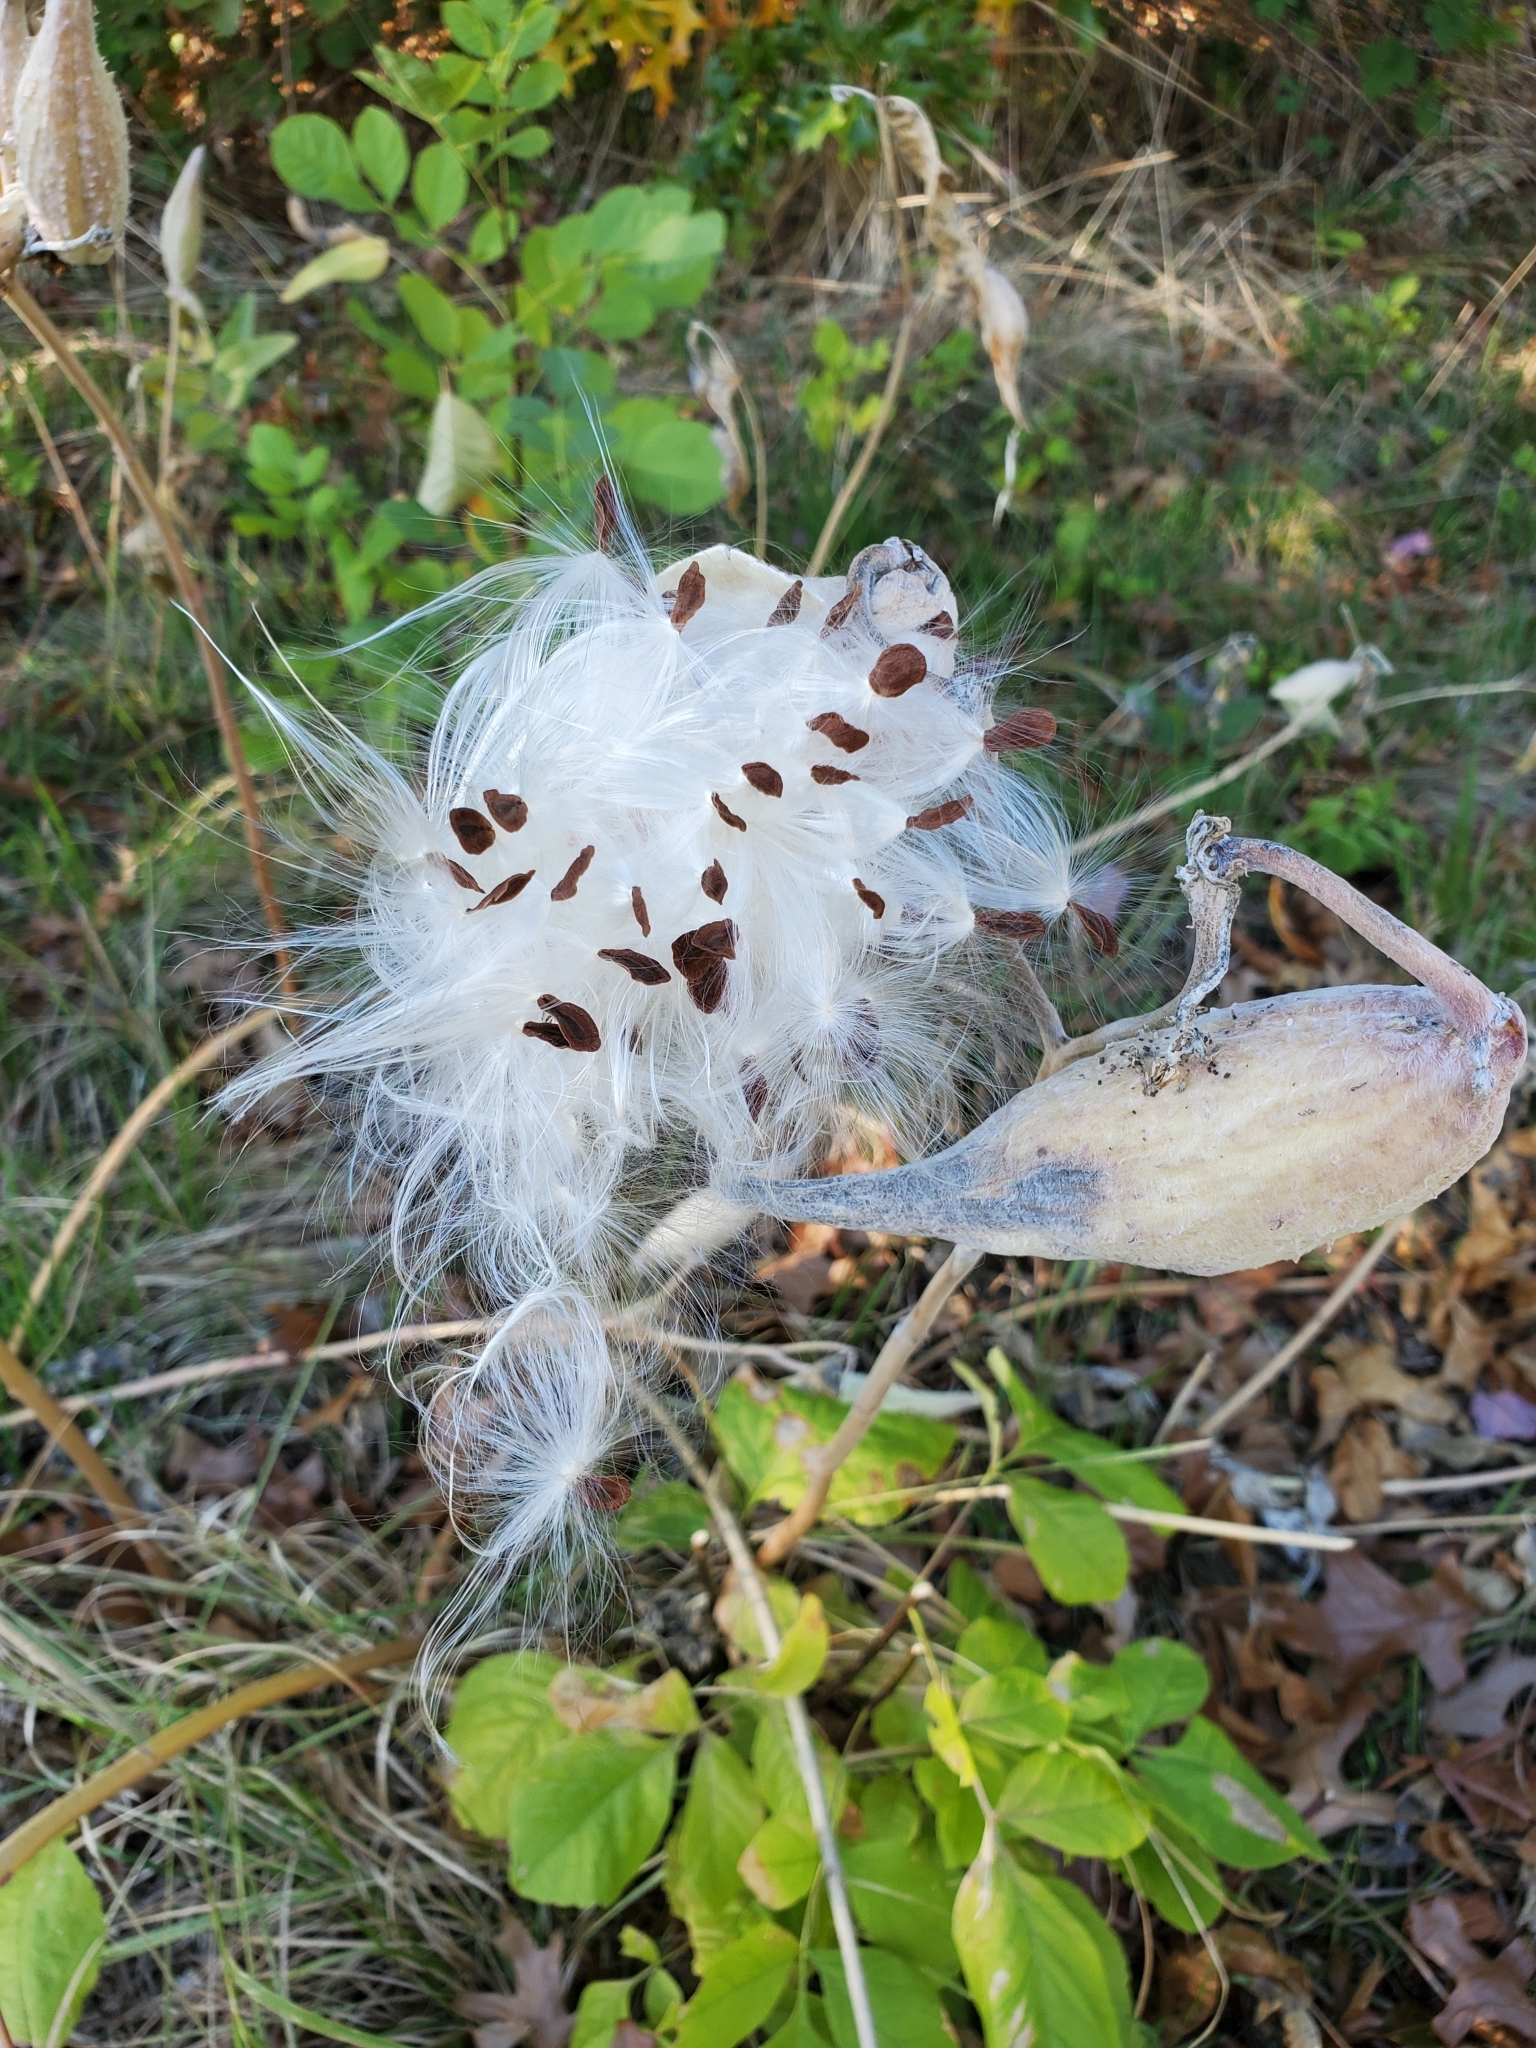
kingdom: Plantae
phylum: Tracheophyta
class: Magnoliopsida
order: Gentianales
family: Apocynaceae
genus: Asclepias
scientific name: Asclepias speciosa
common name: Showy milkweed
